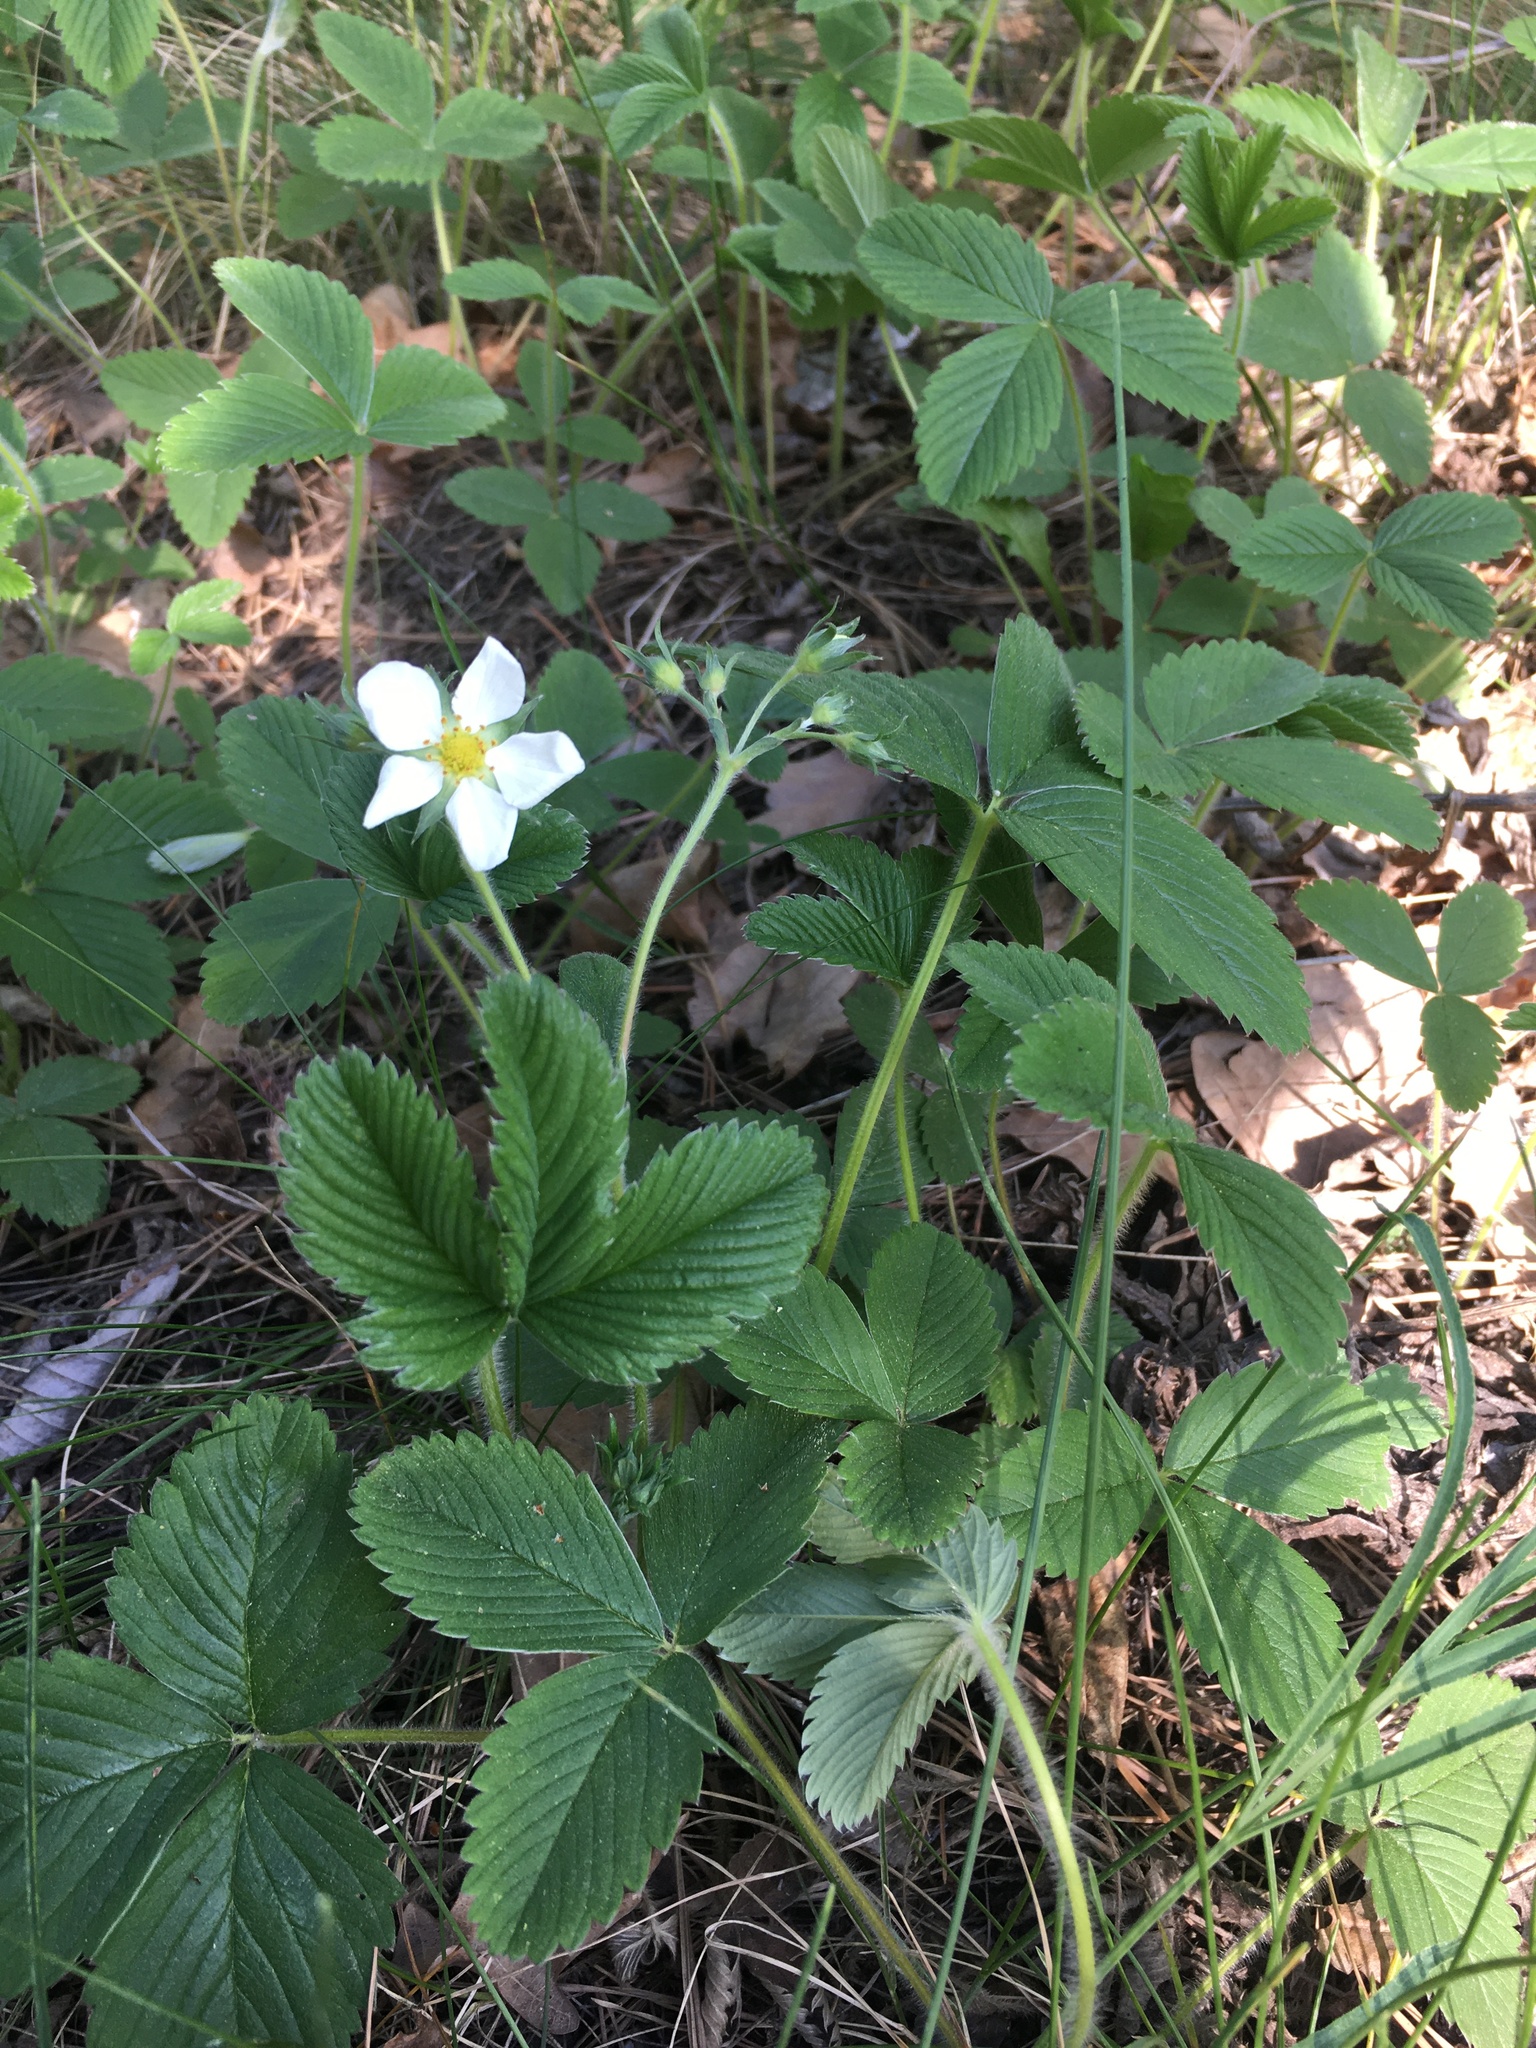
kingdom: Plantae
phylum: Tracheophyta
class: Magnoliopsida
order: Rosales
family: Rosaceae
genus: Fragaria
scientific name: Fragaria viridis
